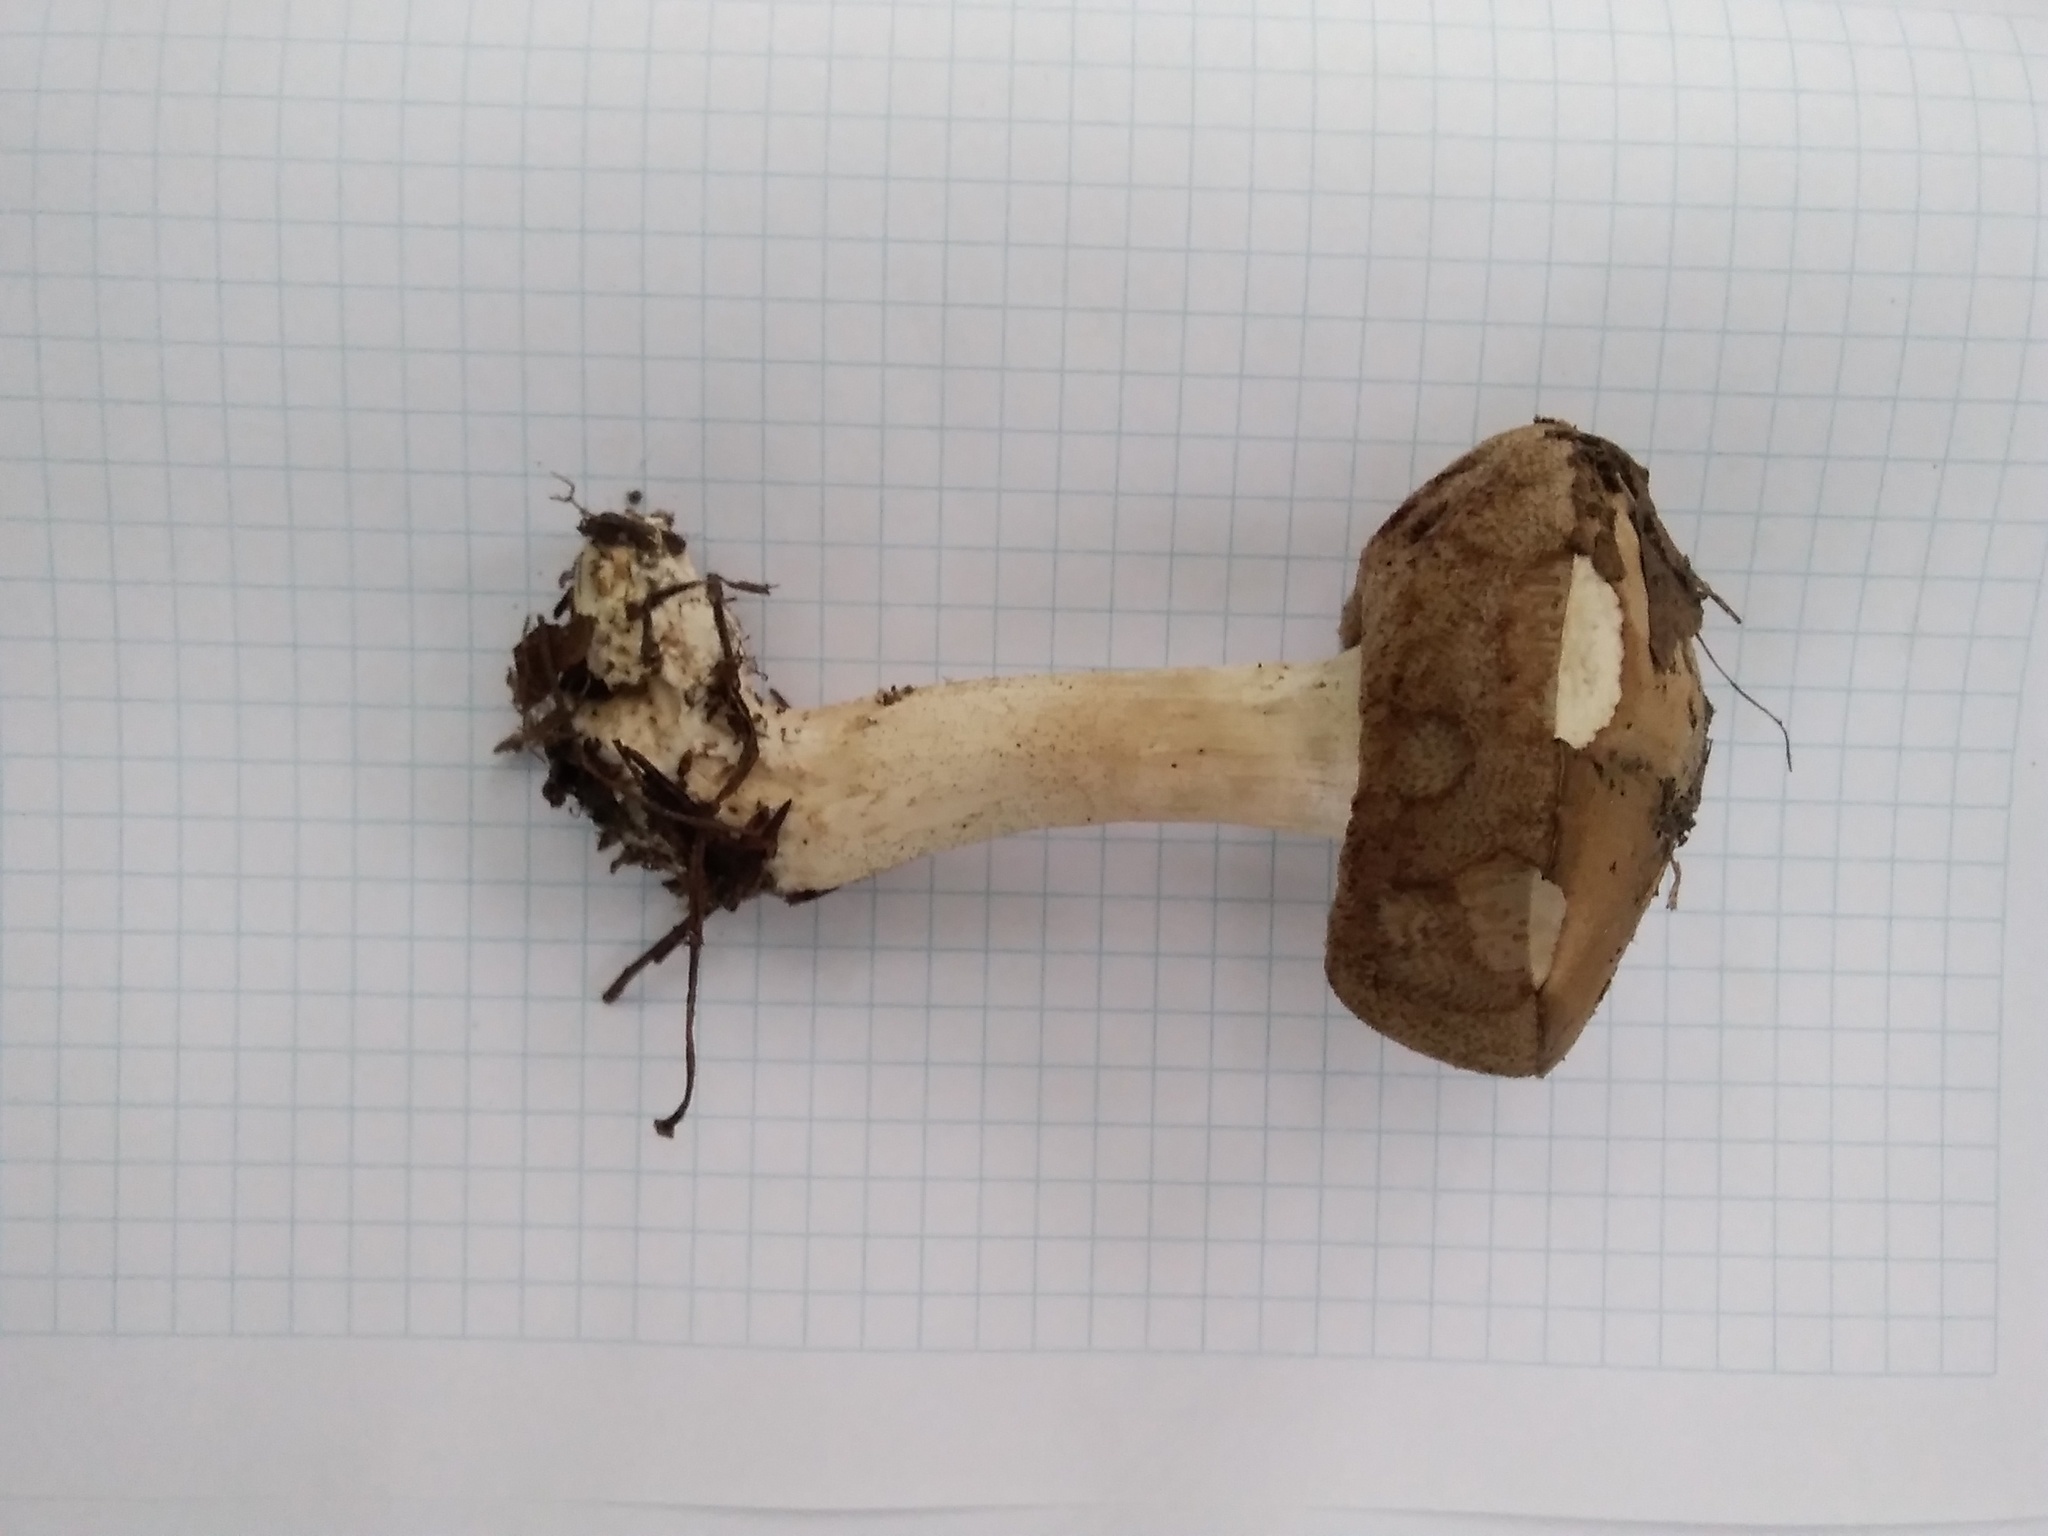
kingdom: Fungi
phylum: Basidiomycota
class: Agaricomycetes
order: Boletales
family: Boletaceae
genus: Leccinum
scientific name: Leccinum scabrum
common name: Blushing bolete
